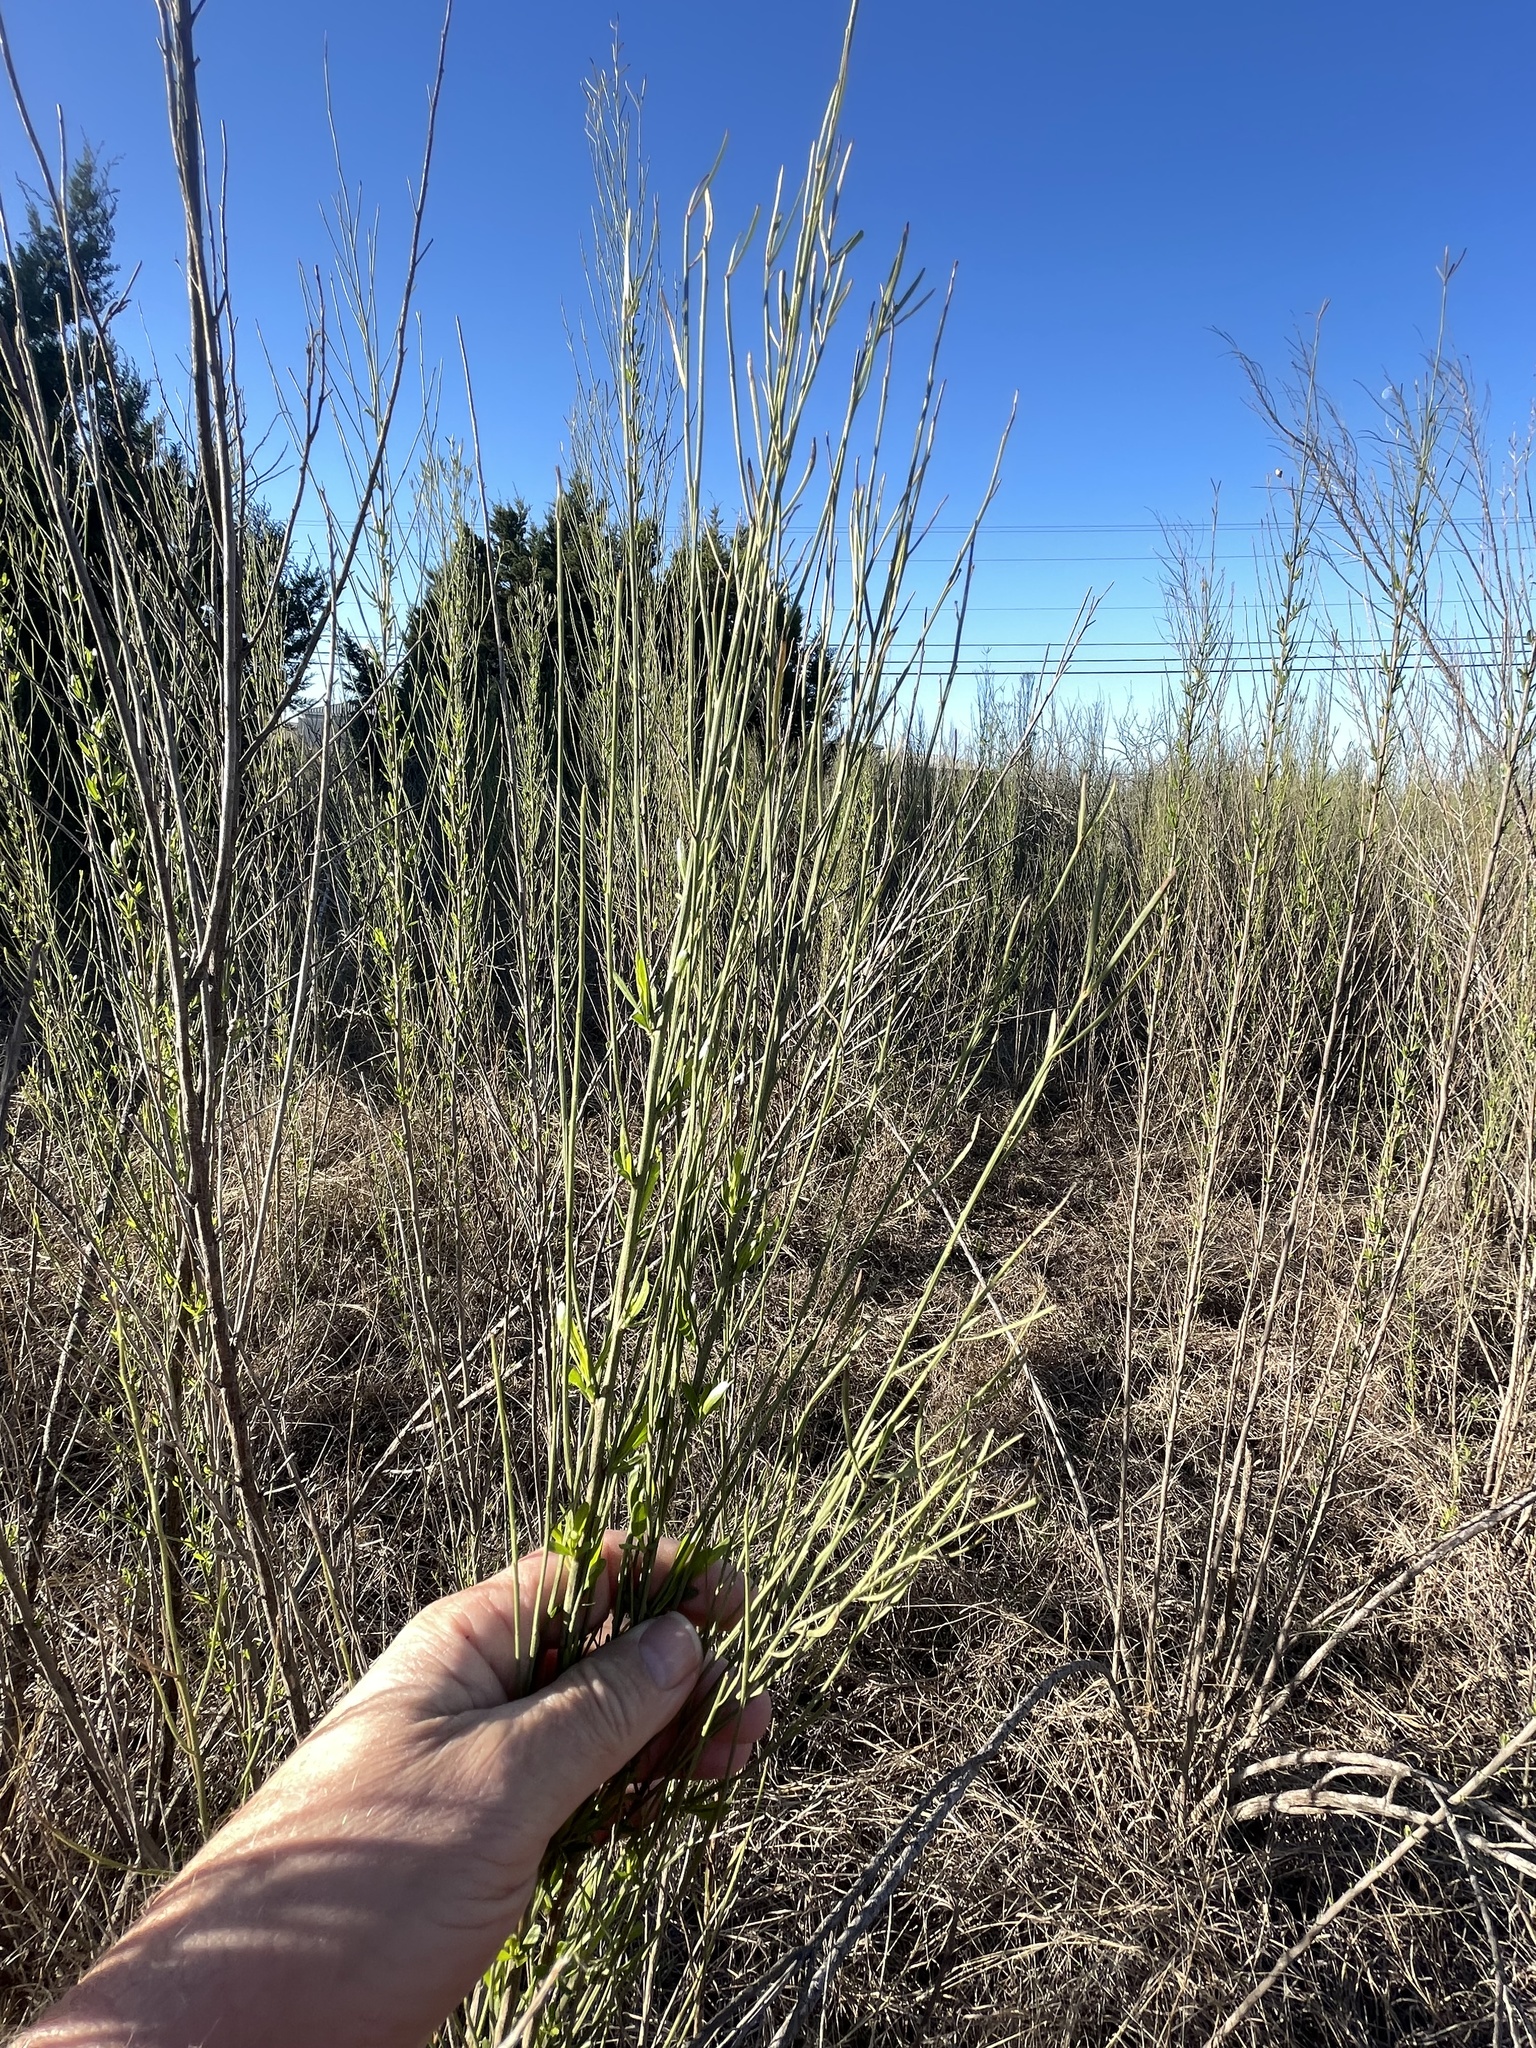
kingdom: Plantae
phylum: Tracheophyta
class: Magnoliopsida
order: Asterales
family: Asteraceae
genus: Baccharis
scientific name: Baccharis neglecta
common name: Roosevelt-weed
